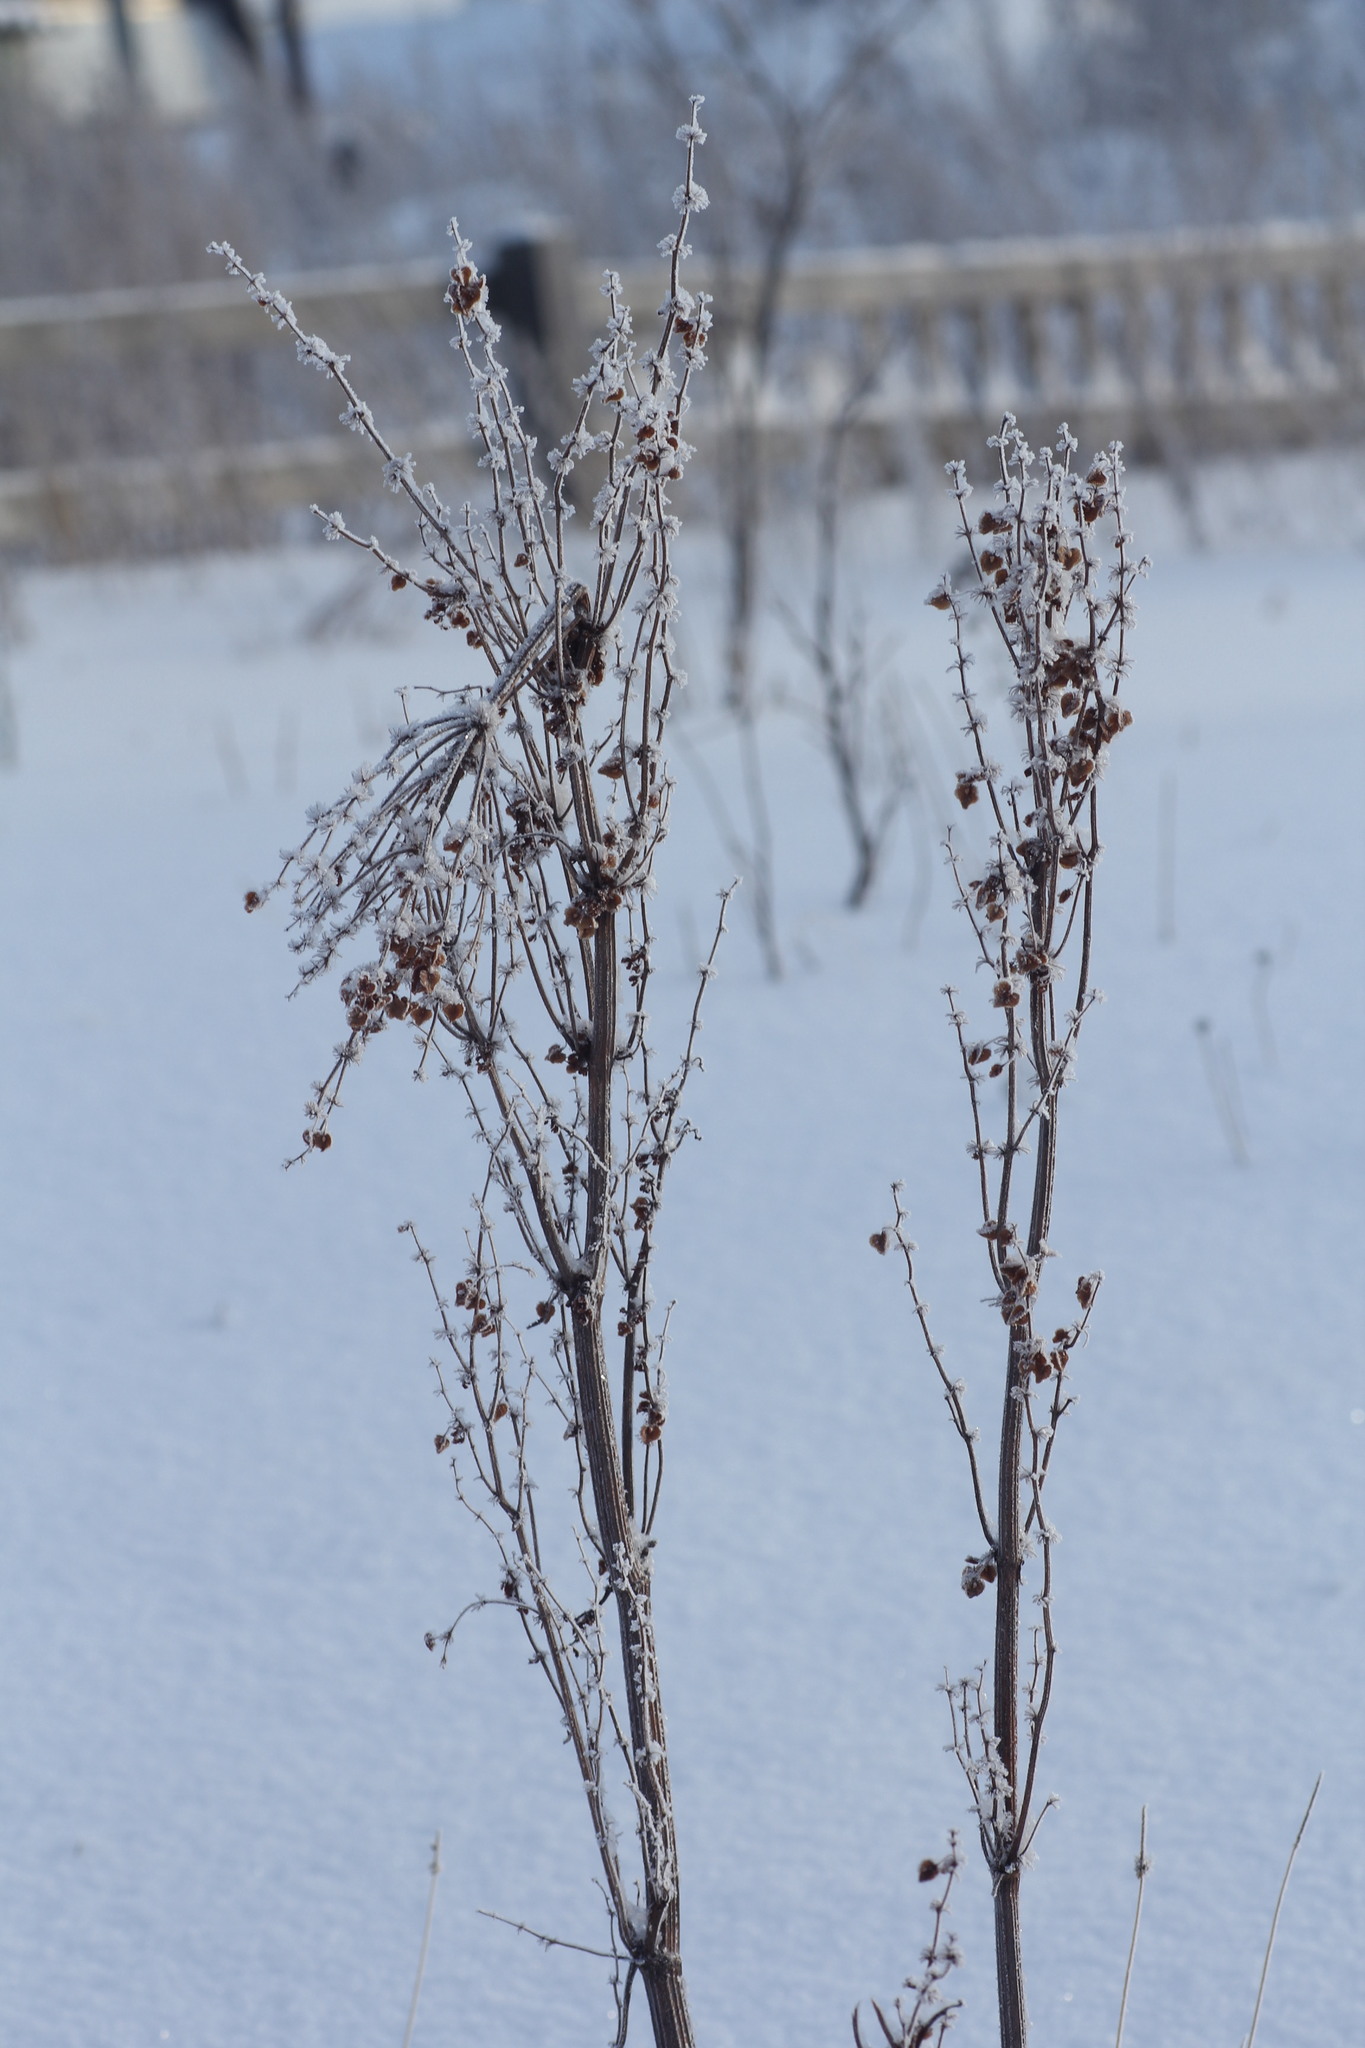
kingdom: Plantae
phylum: Tracheophyta
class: Magnoliopsida
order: Caryophyllales
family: Polygonaceae
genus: Rumex
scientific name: Rumex aquaticus
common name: Scottish dock
